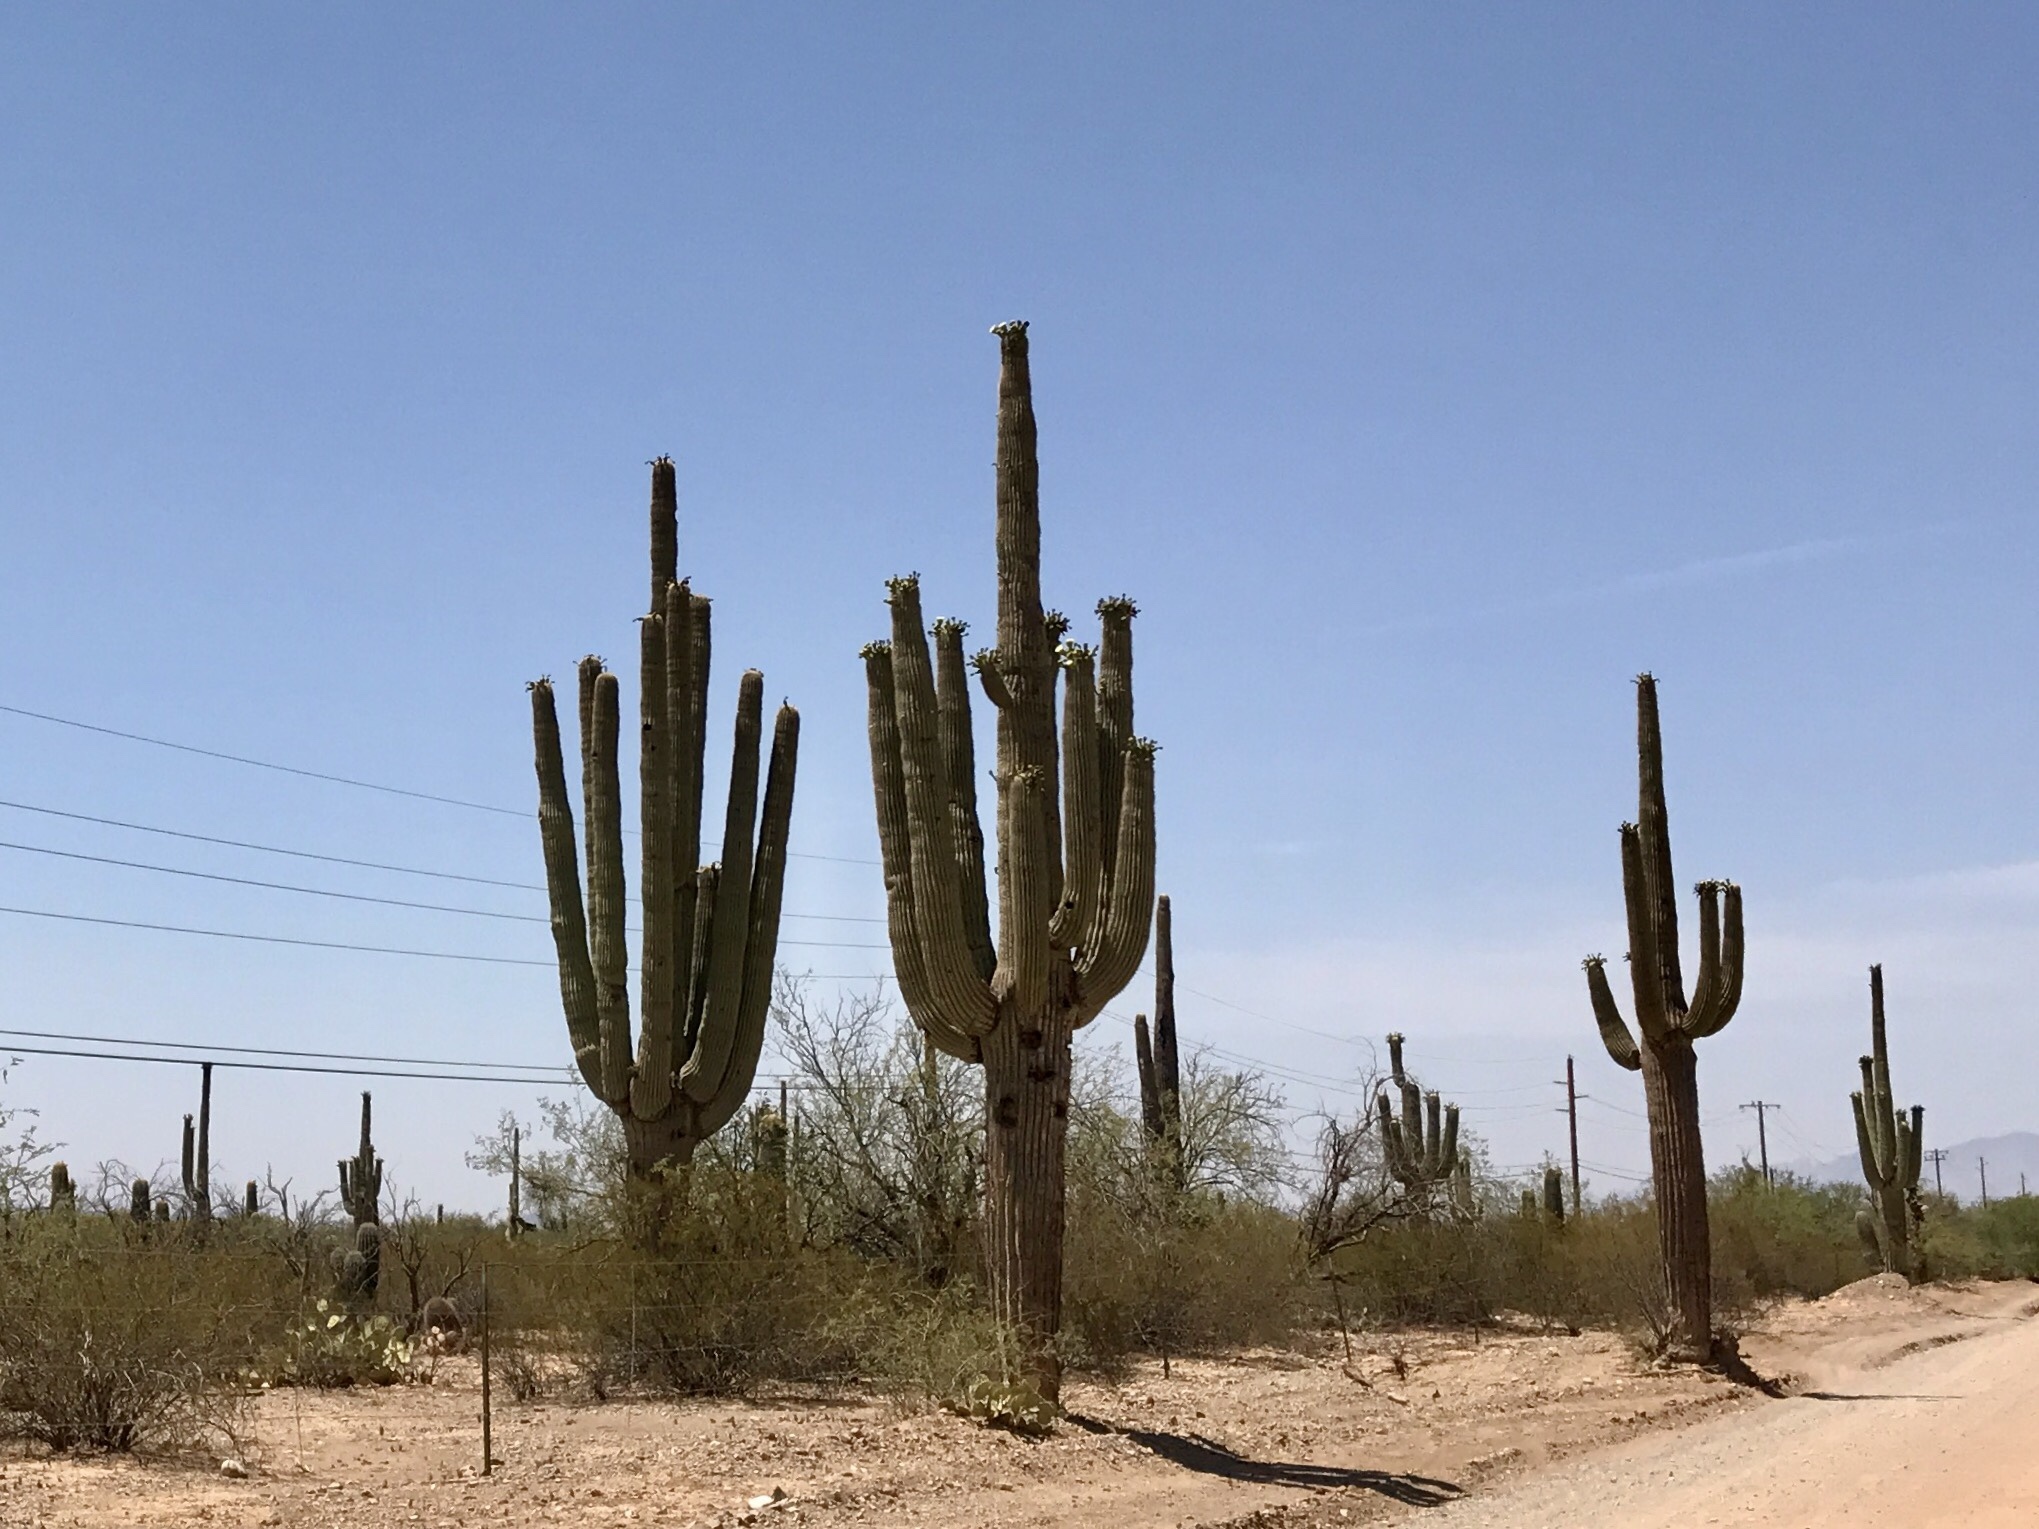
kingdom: Plantae
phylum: Tracheophyta
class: Magnoliopsida
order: Caryophyllales
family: Cactaceae
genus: Carnegiea
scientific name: Carnegiea gigantea
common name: Saguaro
